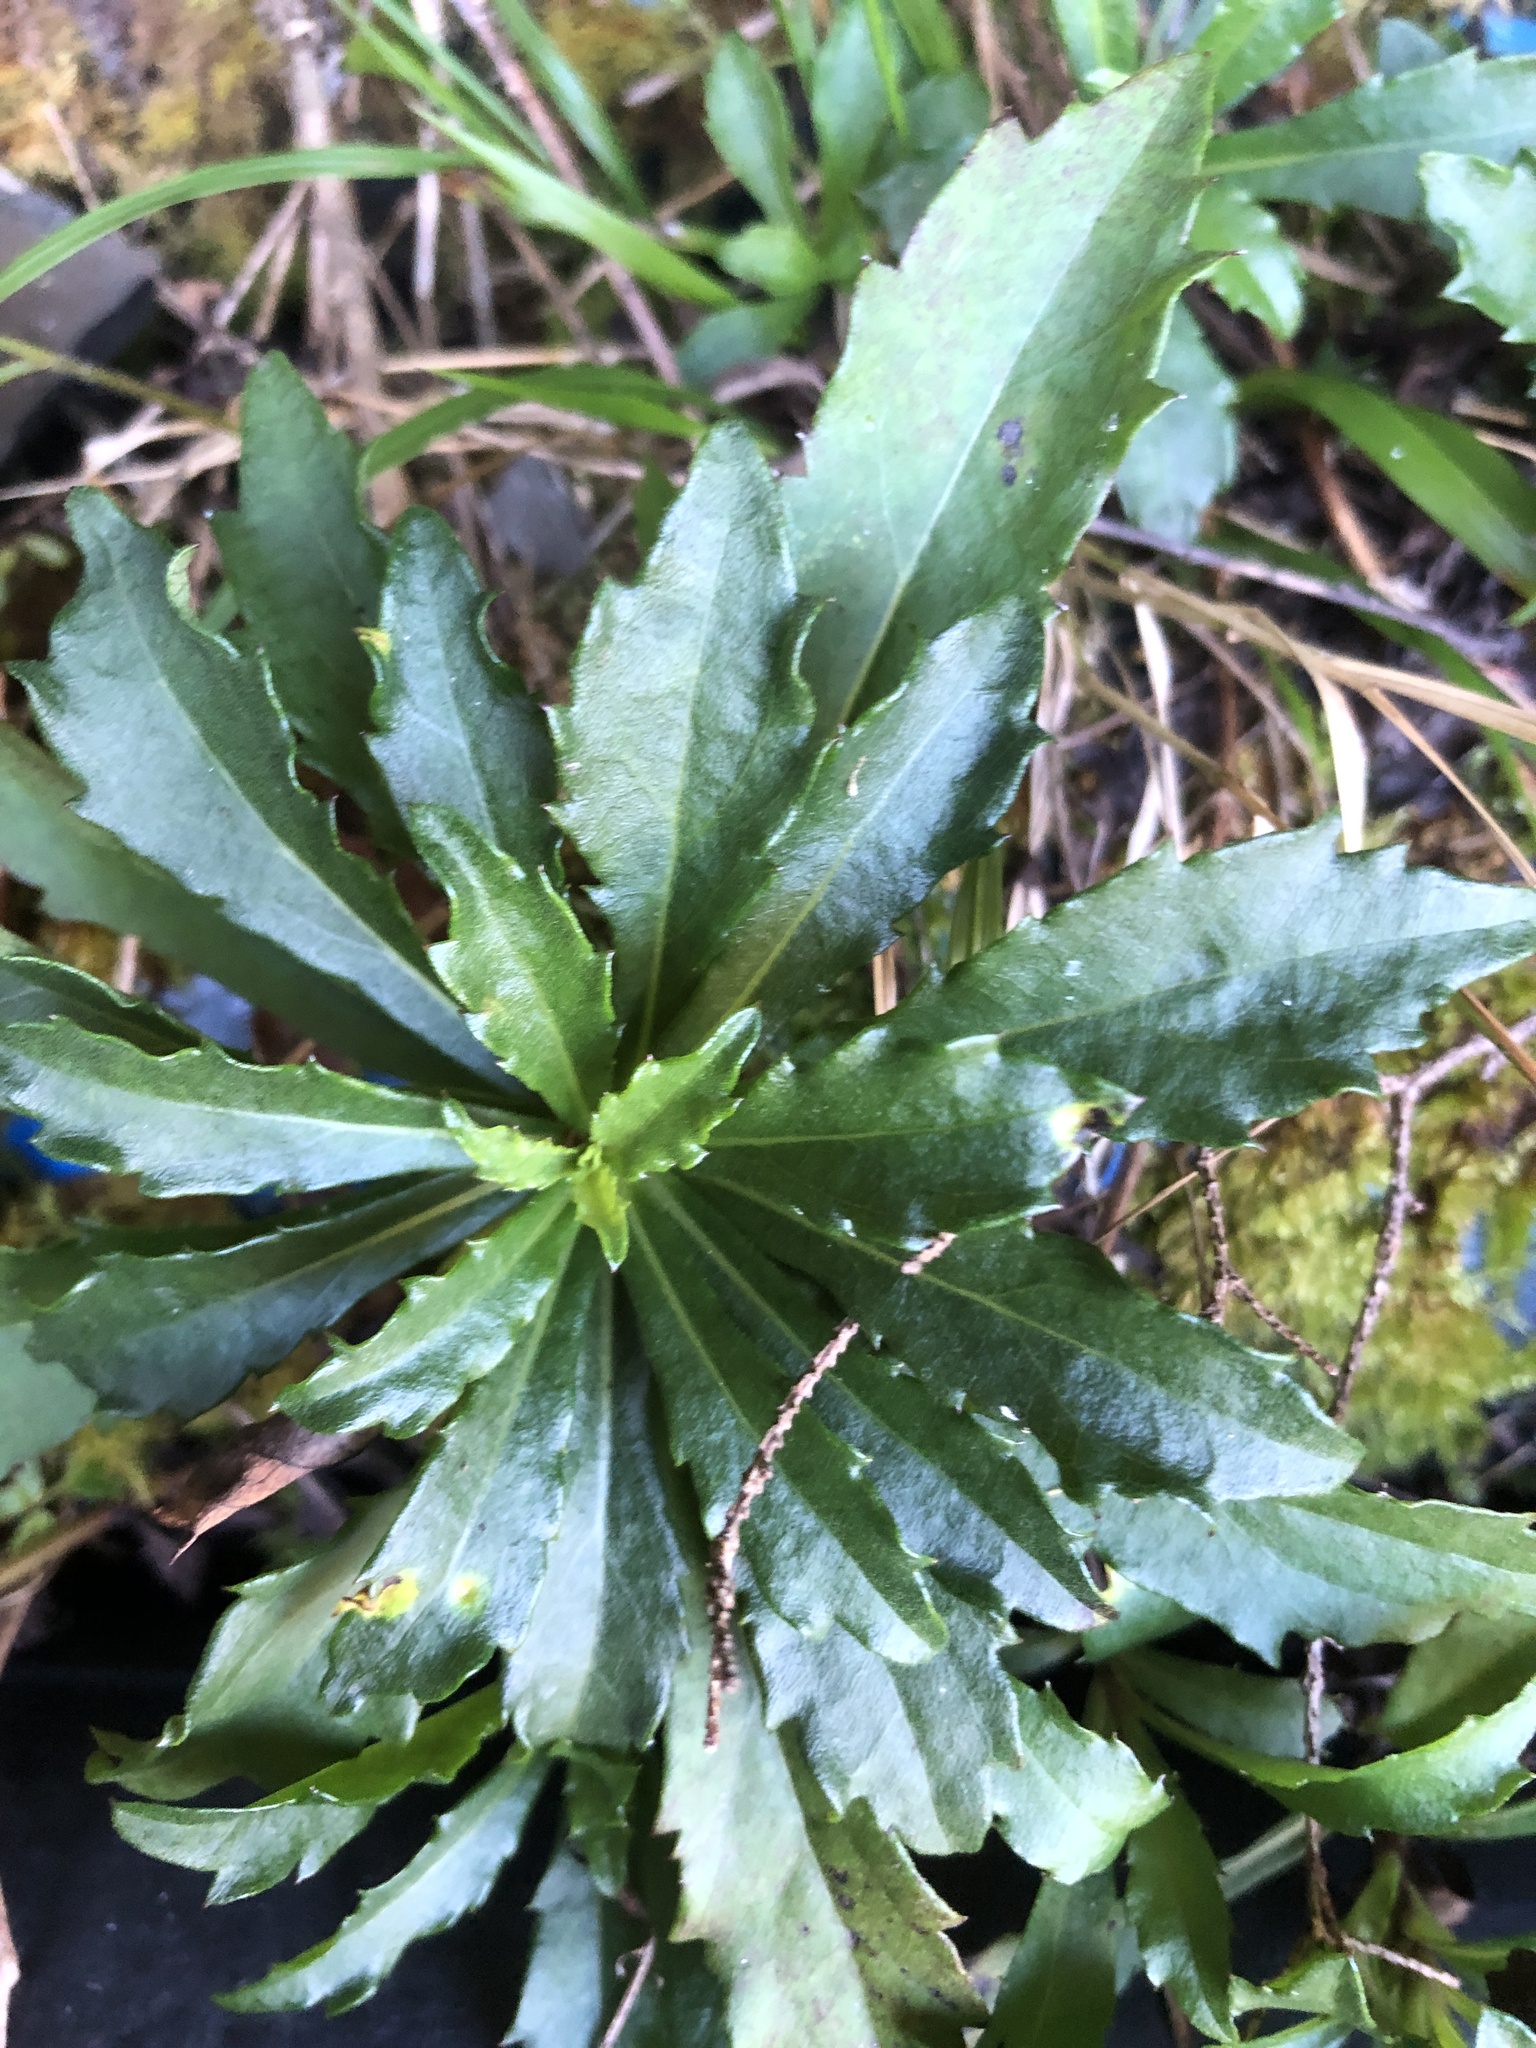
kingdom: Plantae
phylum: Tracheophyta
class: Magnoliopsida
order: Asterales
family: Asteraceae
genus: Aster
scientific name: Aster taiwanensis
